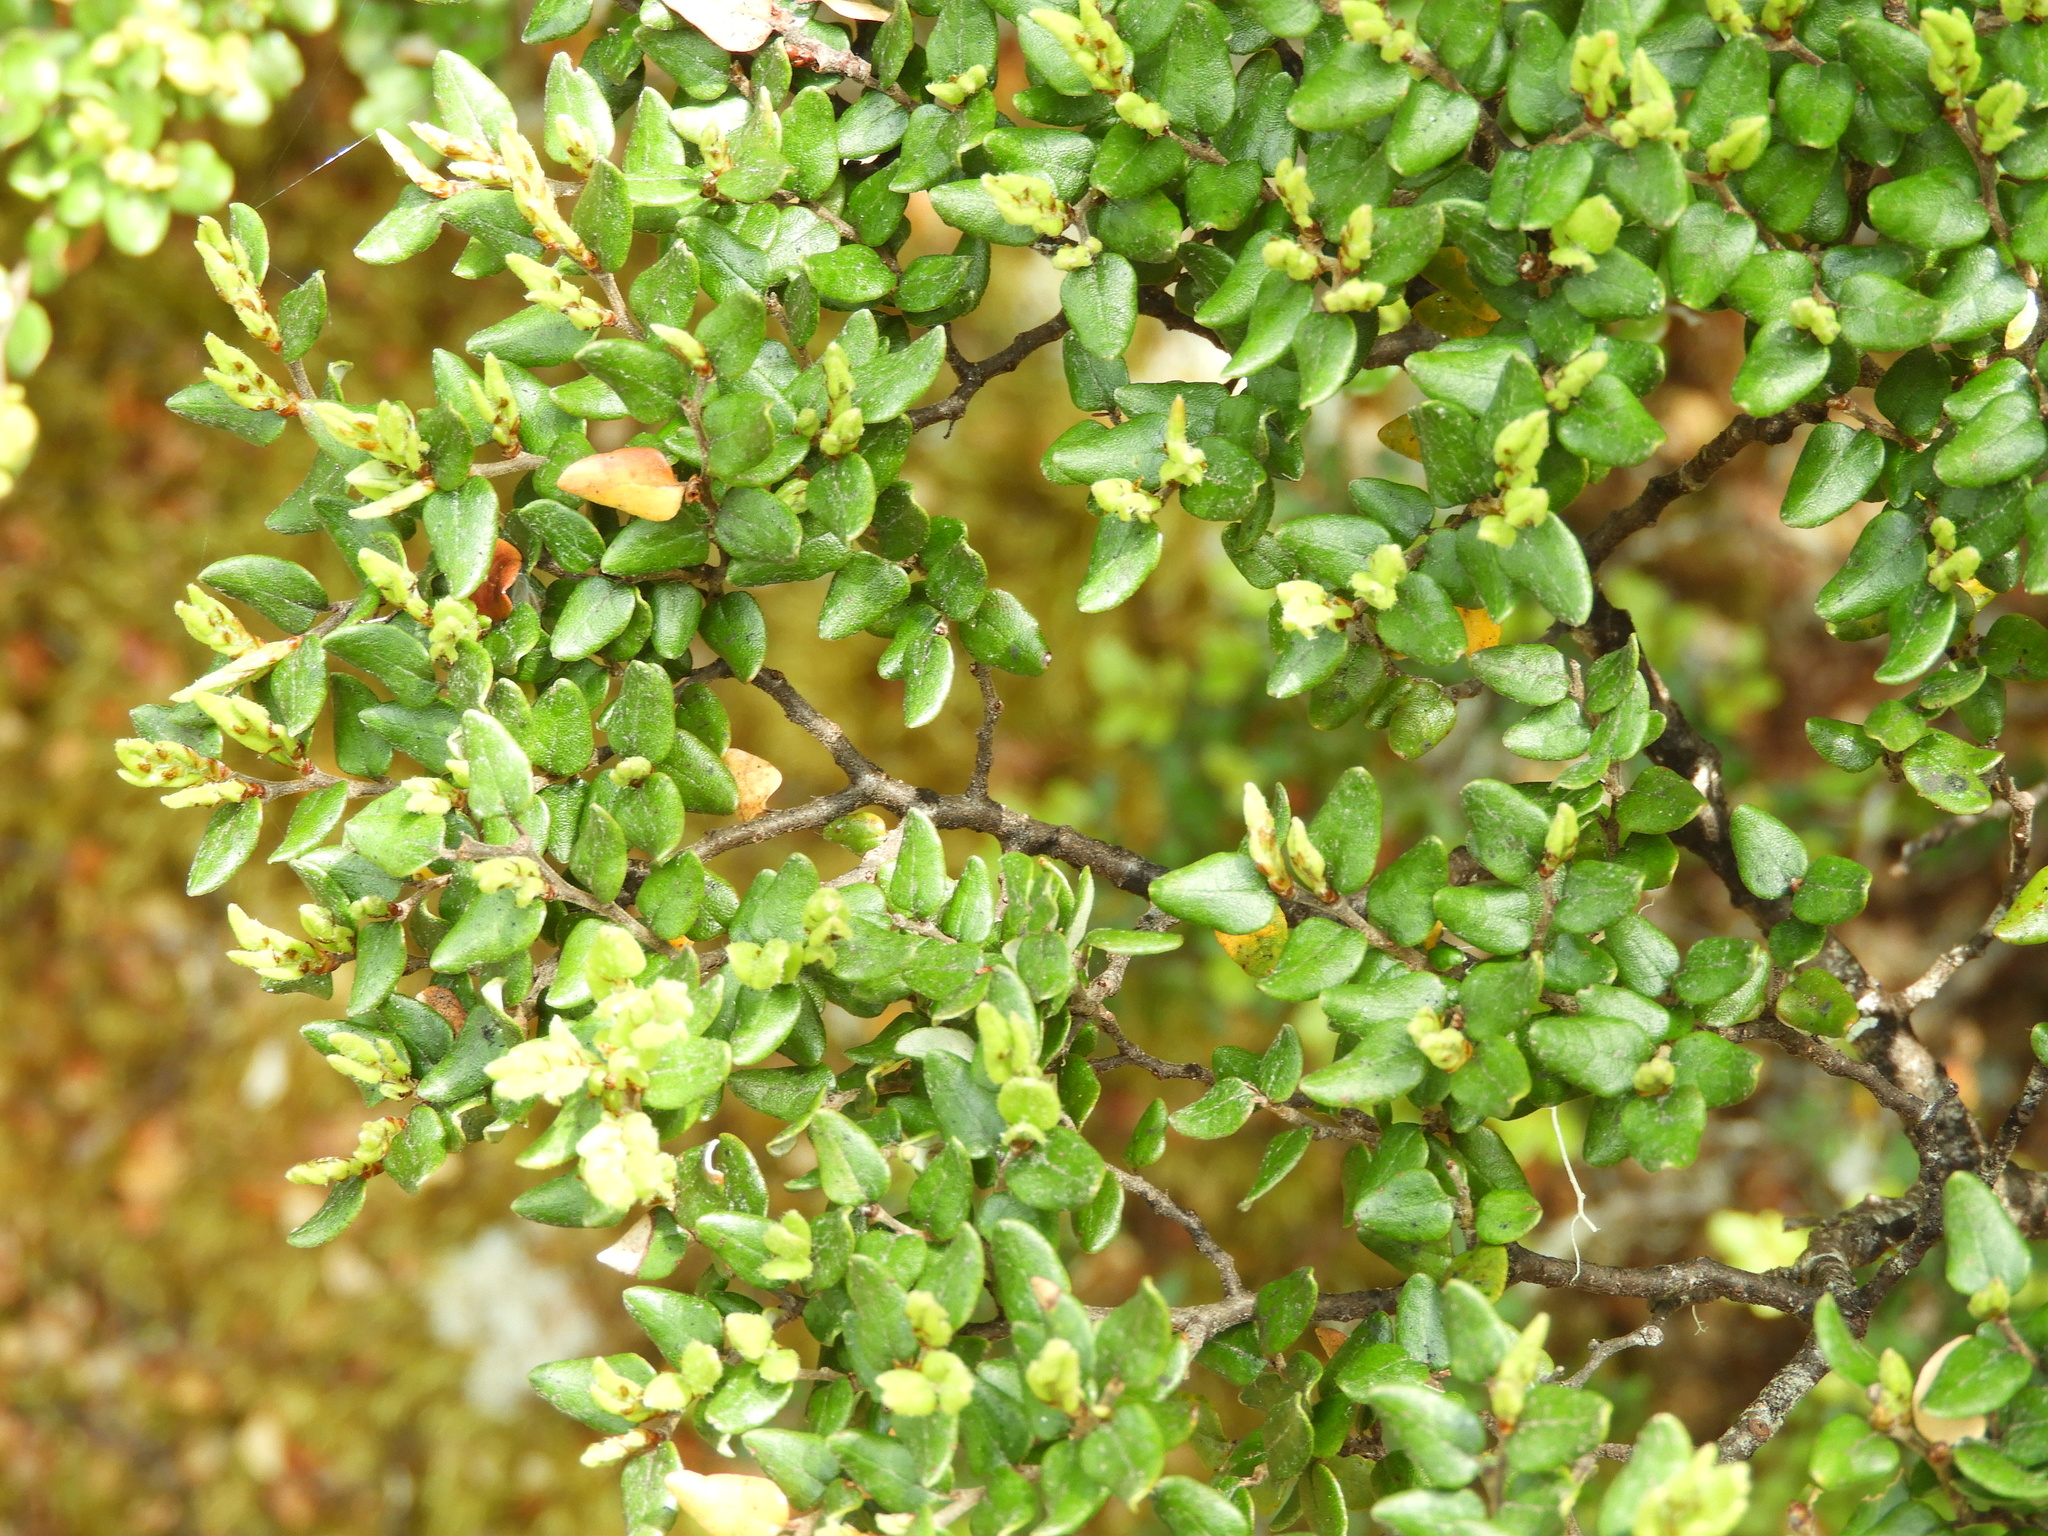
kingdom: Plantae
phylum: Tracheophyta
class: Magnoliopsida
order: Fagales
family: Nothofagaceae
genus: Nothofagus
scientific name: Nothofagus cliffortioides
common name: Mountain beech
